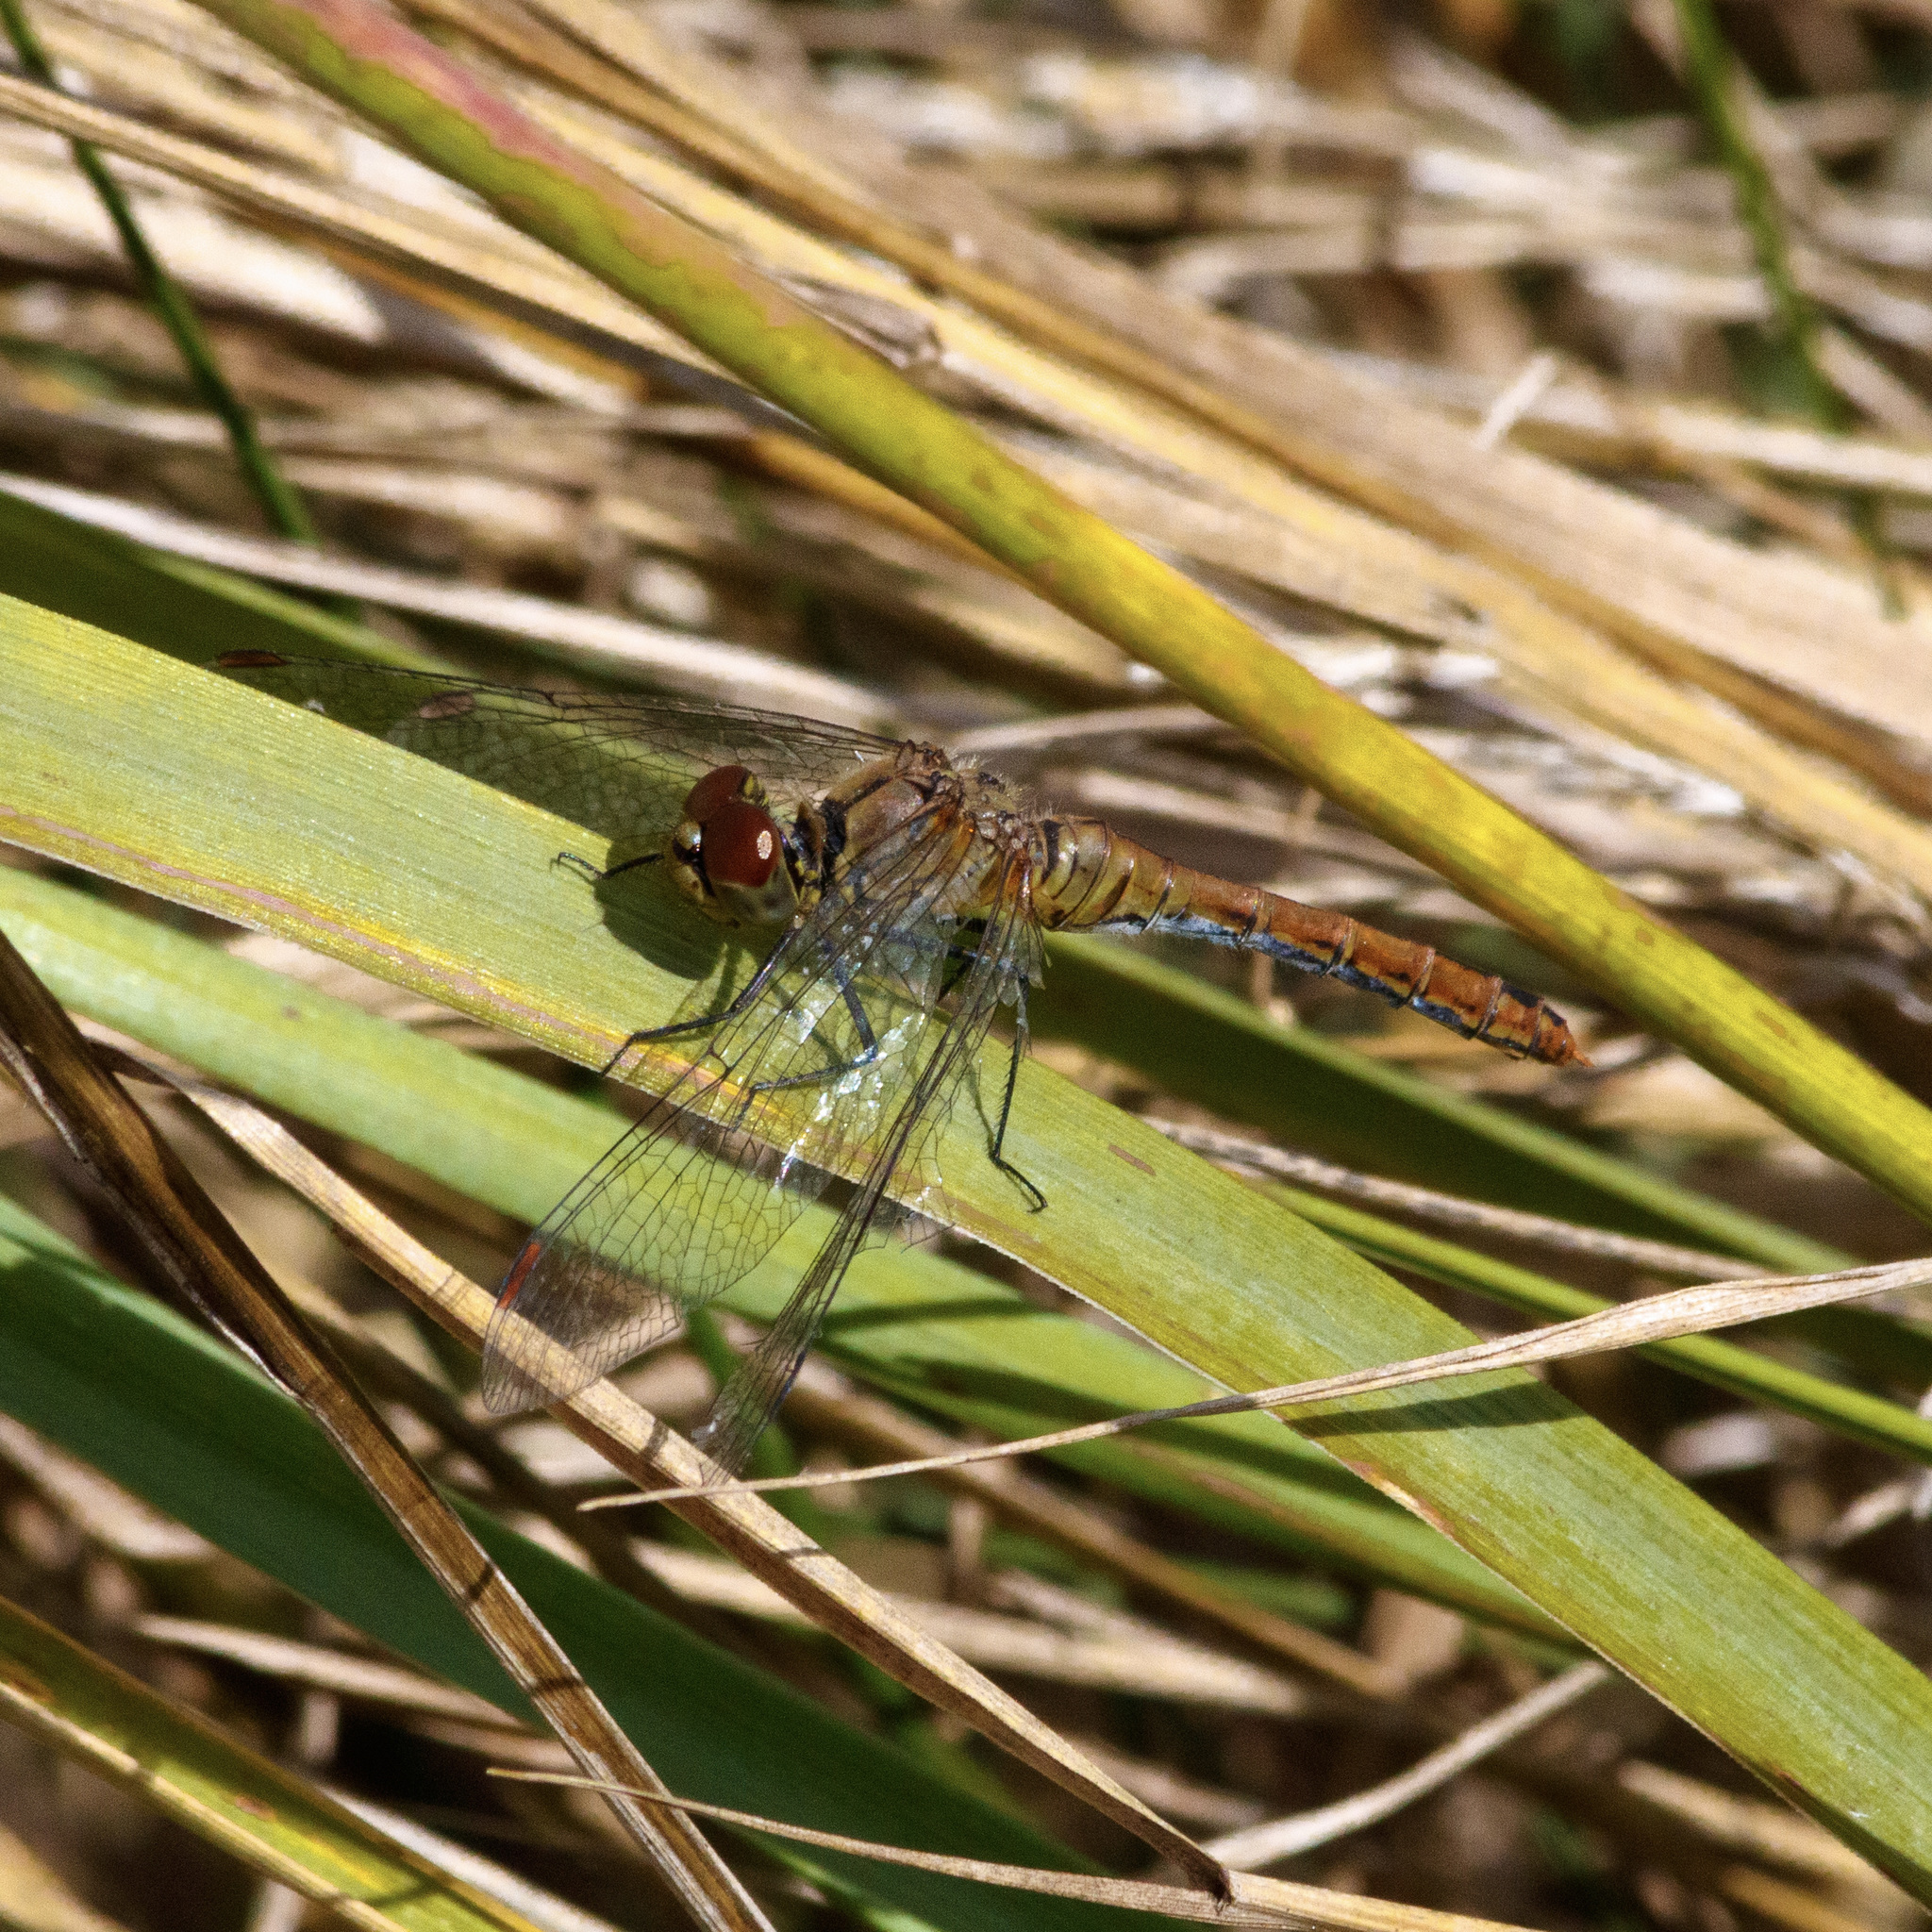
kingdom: Animalia
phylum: Arthropoda
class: Insecta
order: Odonata
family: Libellulidae
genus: Sympetrum
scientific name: Sympetrum sanguineum
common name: Ruddy darter
